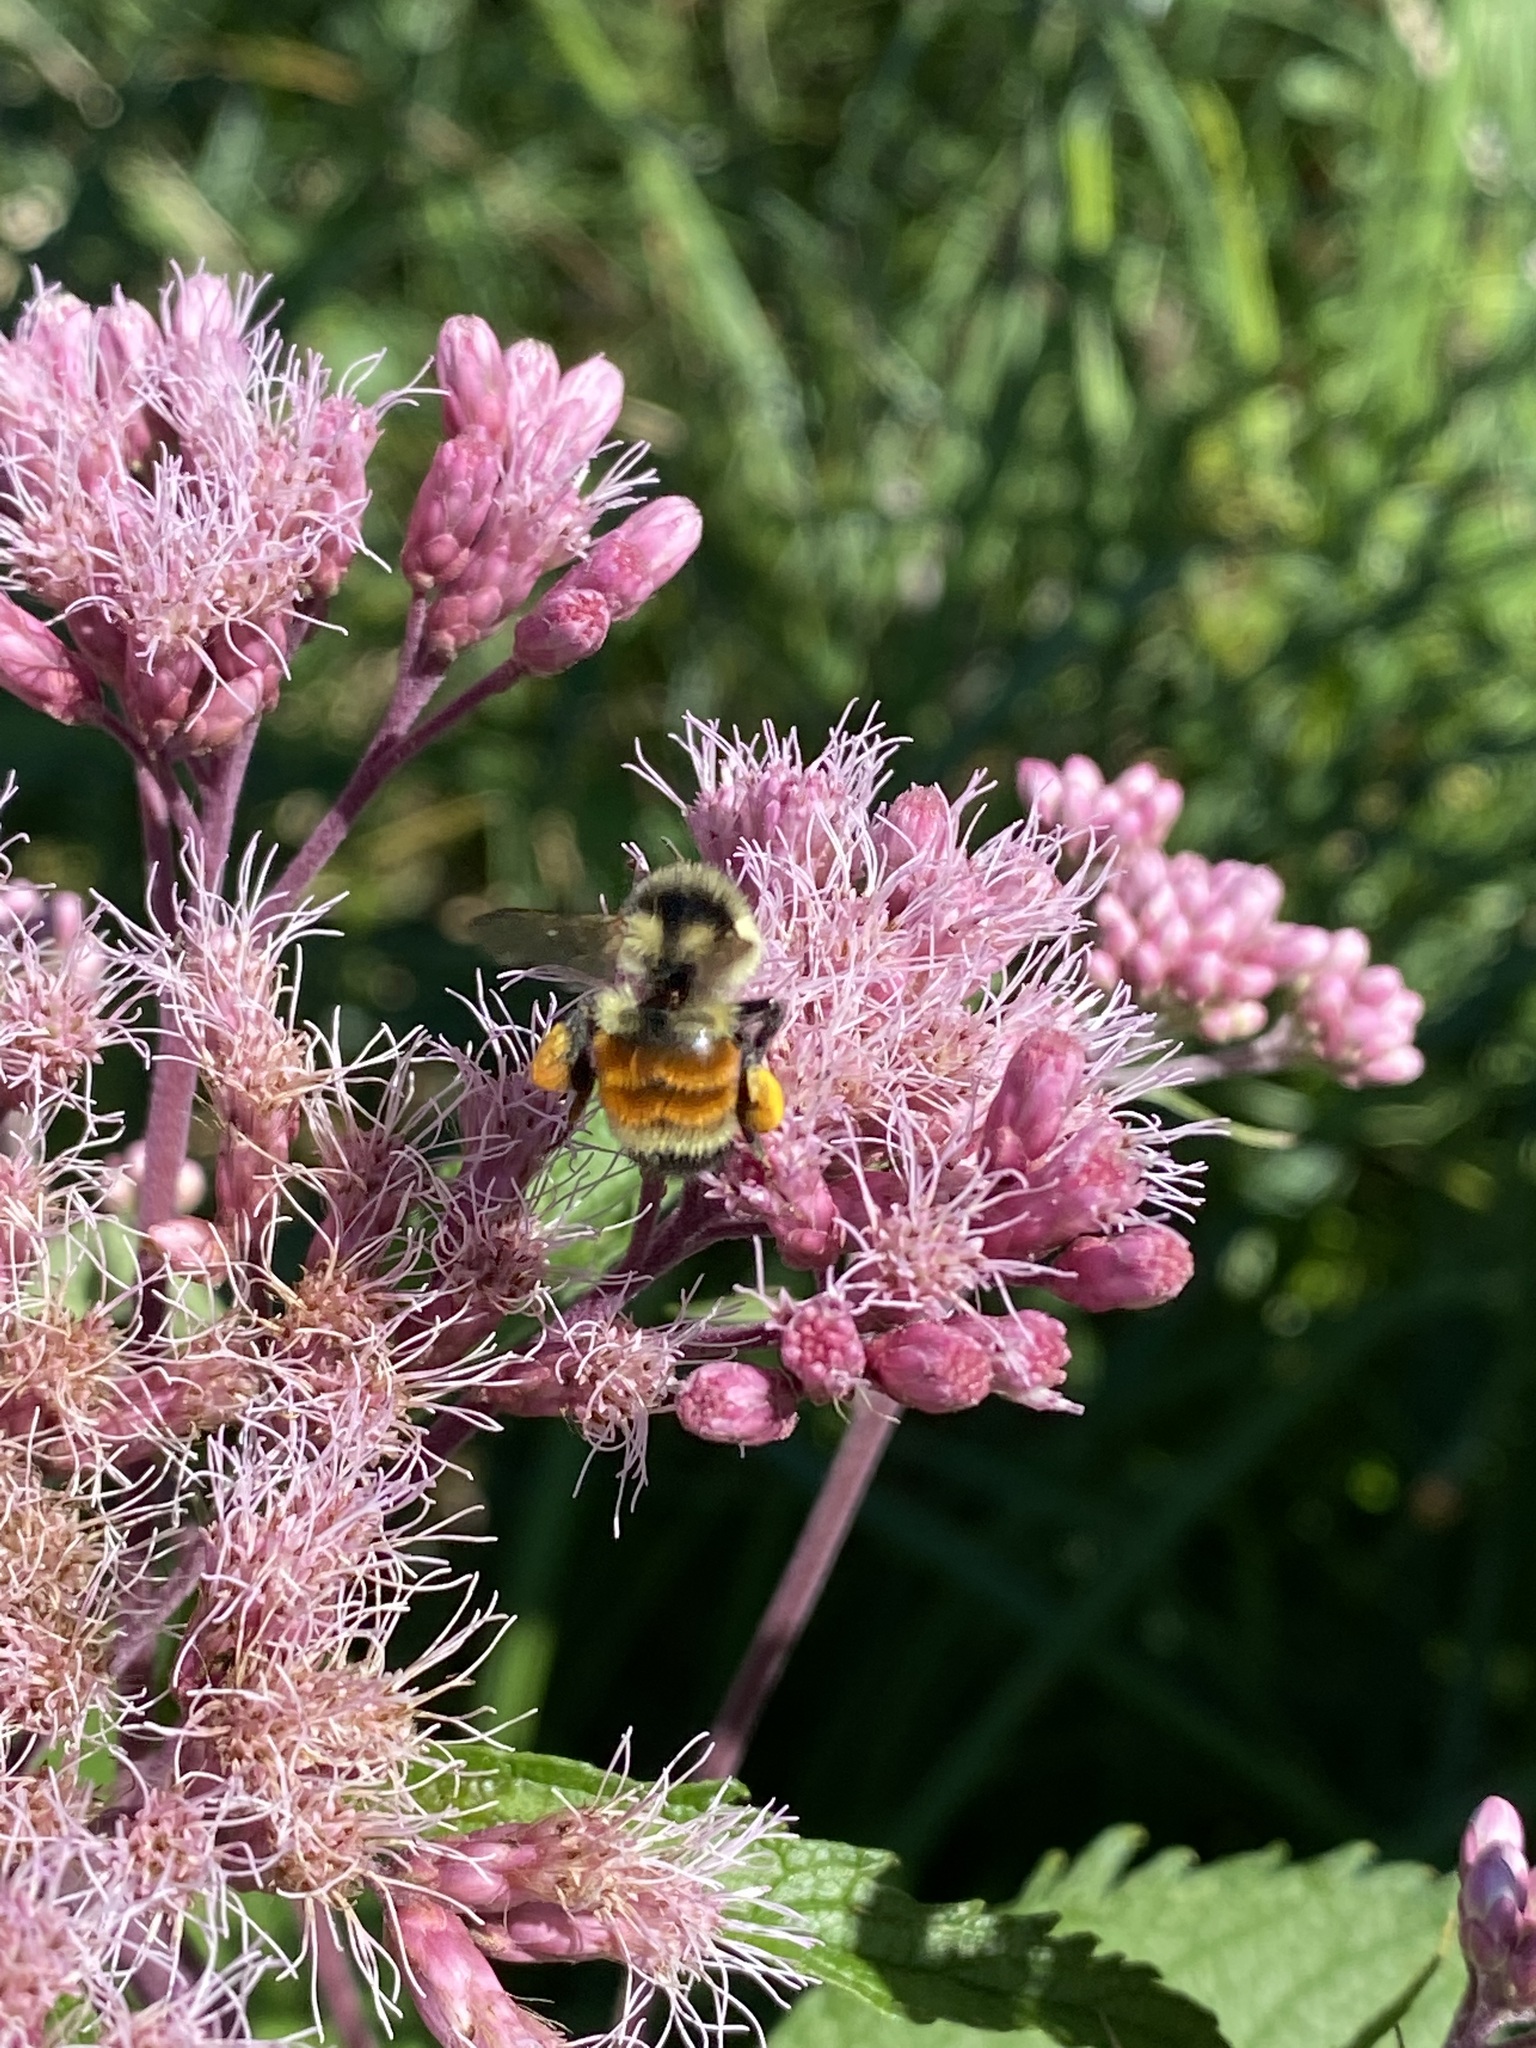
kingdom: Animalia
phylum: Arthropoda
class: Insecta
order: Hymenoptera
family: Apidae
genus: Bombus
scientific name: Bombus ternarius
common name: Tri-colored bumble bee
